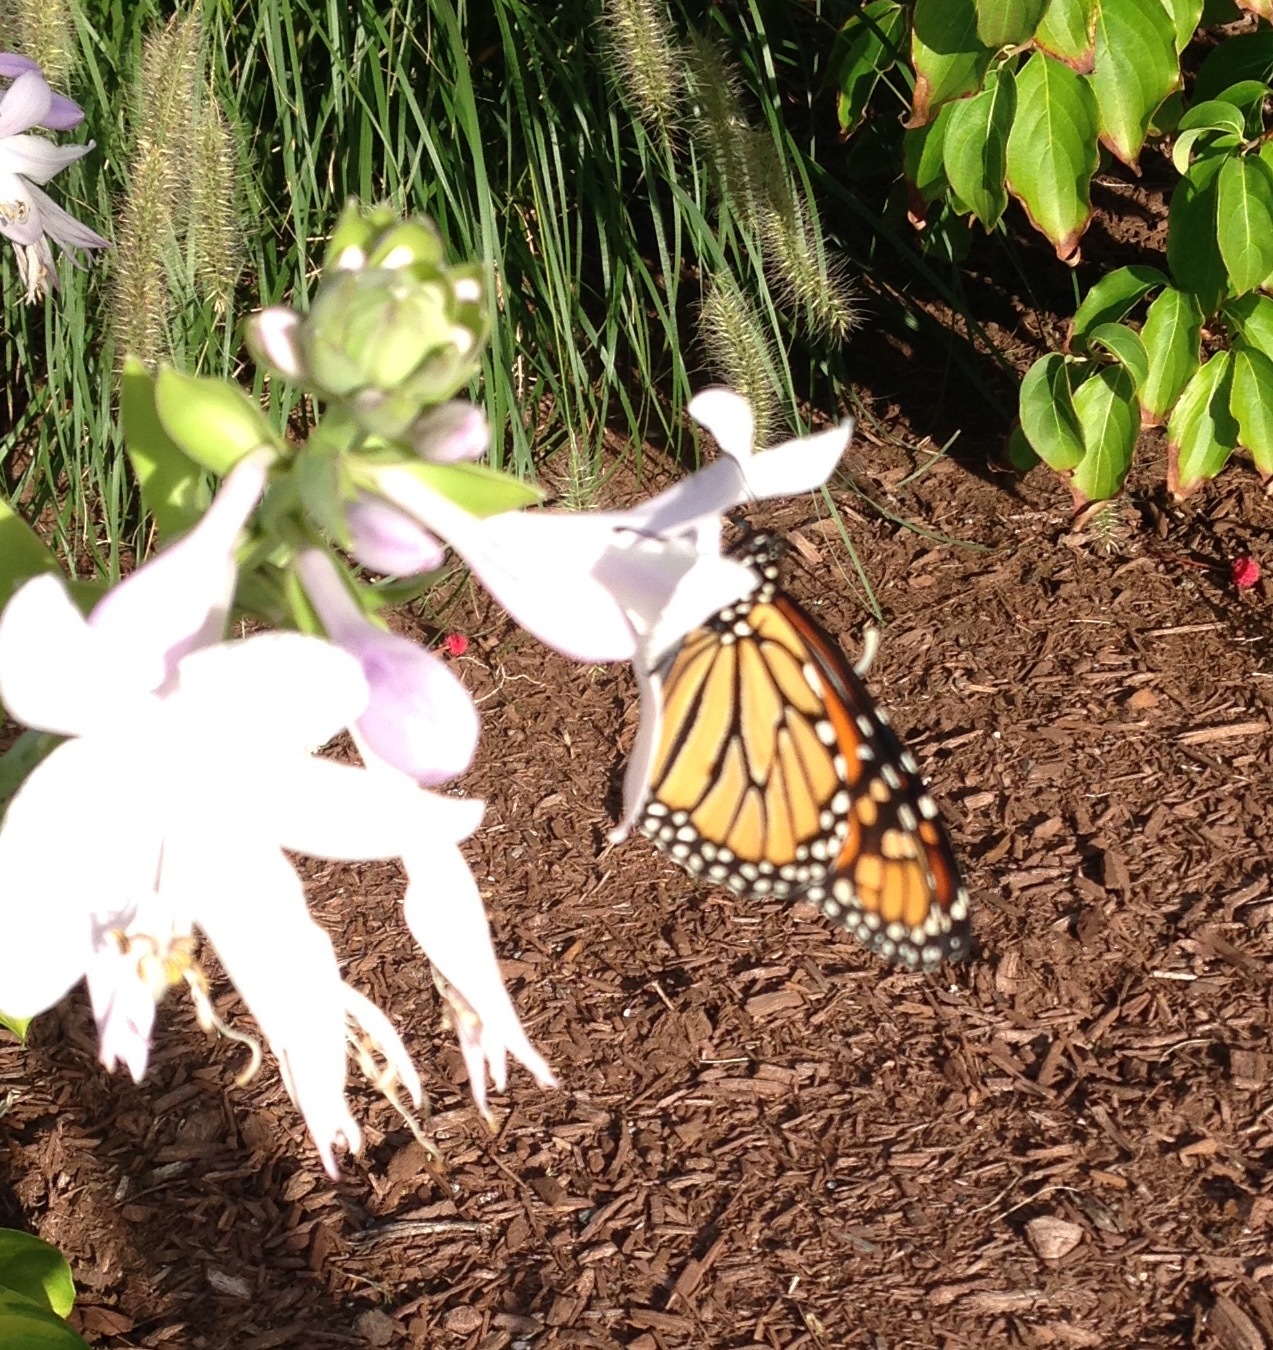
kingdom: Animalia
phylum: Arthropoda
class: Insecta
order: Lepidoptera
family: Nymphalidae
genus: Danaus
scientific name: Danaus plexippus
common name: Monarch
